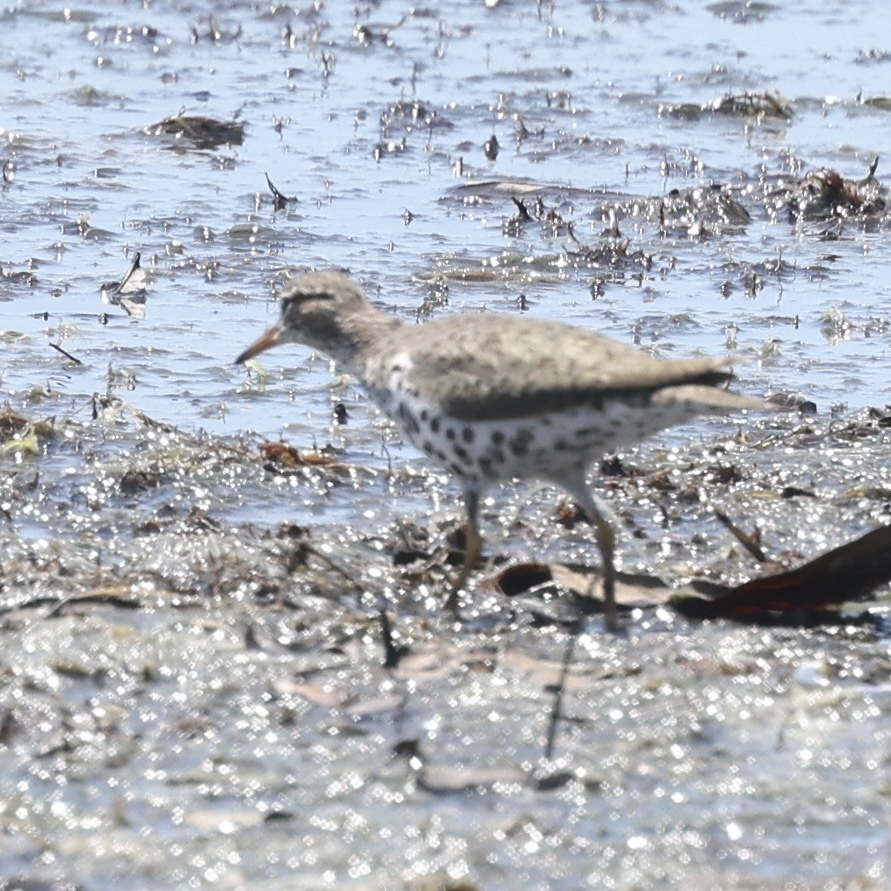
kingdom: Animalia
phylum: Chordata
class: Aves
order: Charadriiformes
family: Scolopacidae
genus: Actitis
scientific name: Actitis macularius
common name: Spotted sandpiper
